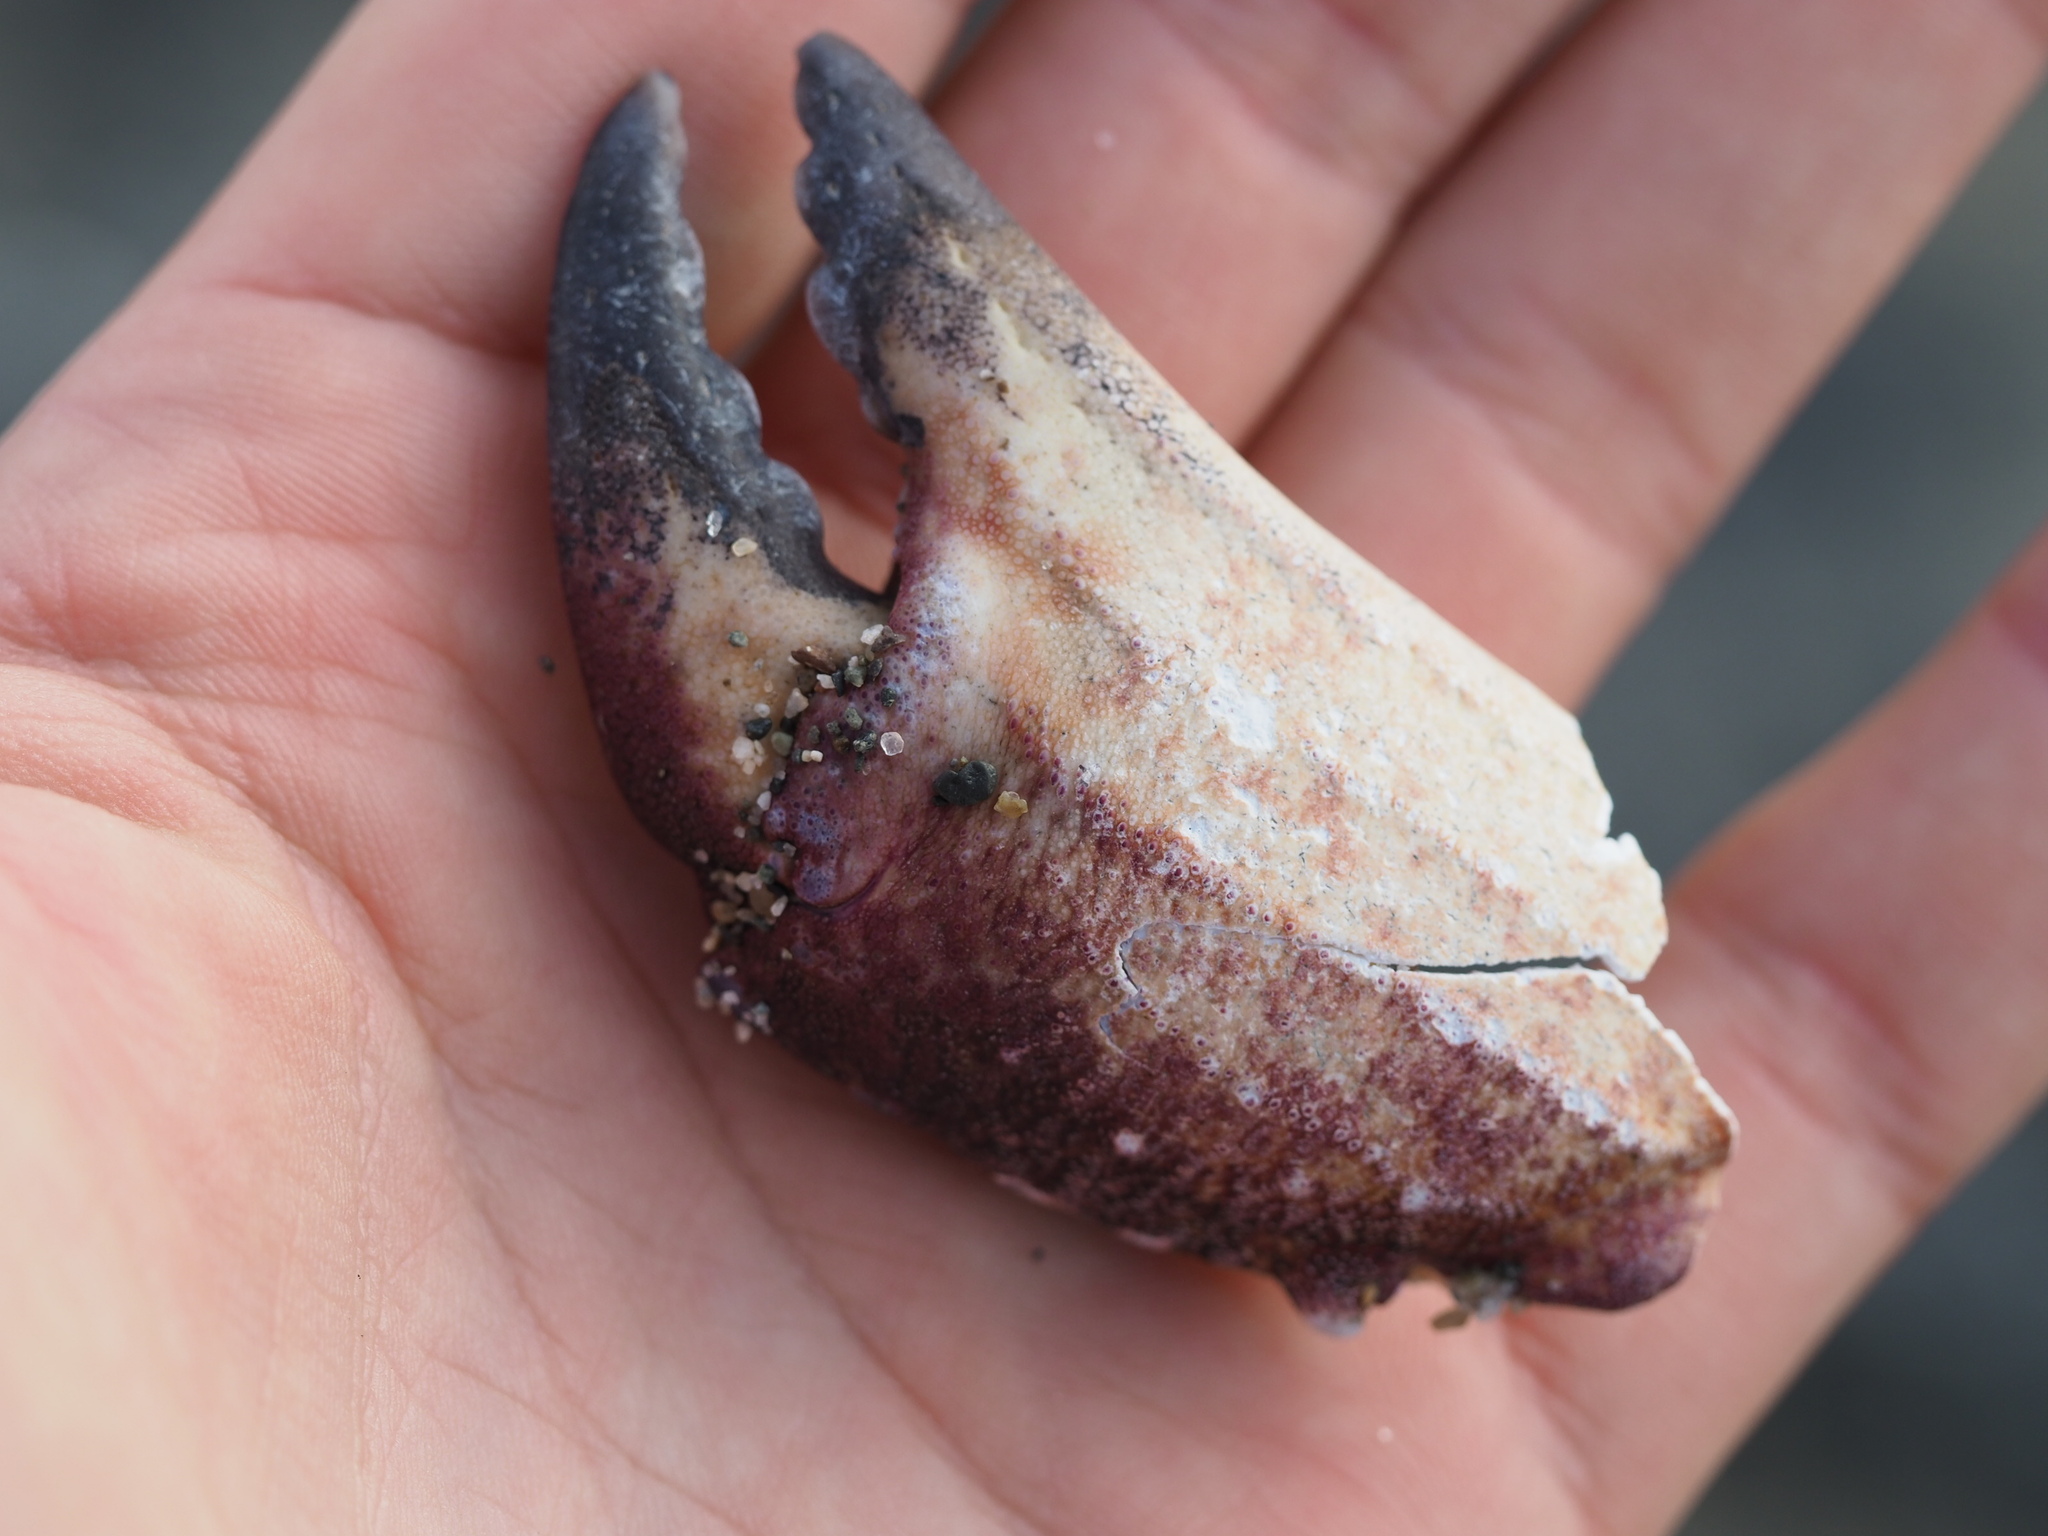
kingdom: Animalia
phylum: Arthropoda
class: Malacostraca
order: Decapoda
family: Cancridae
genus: Cancer
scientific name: Cancer productus
